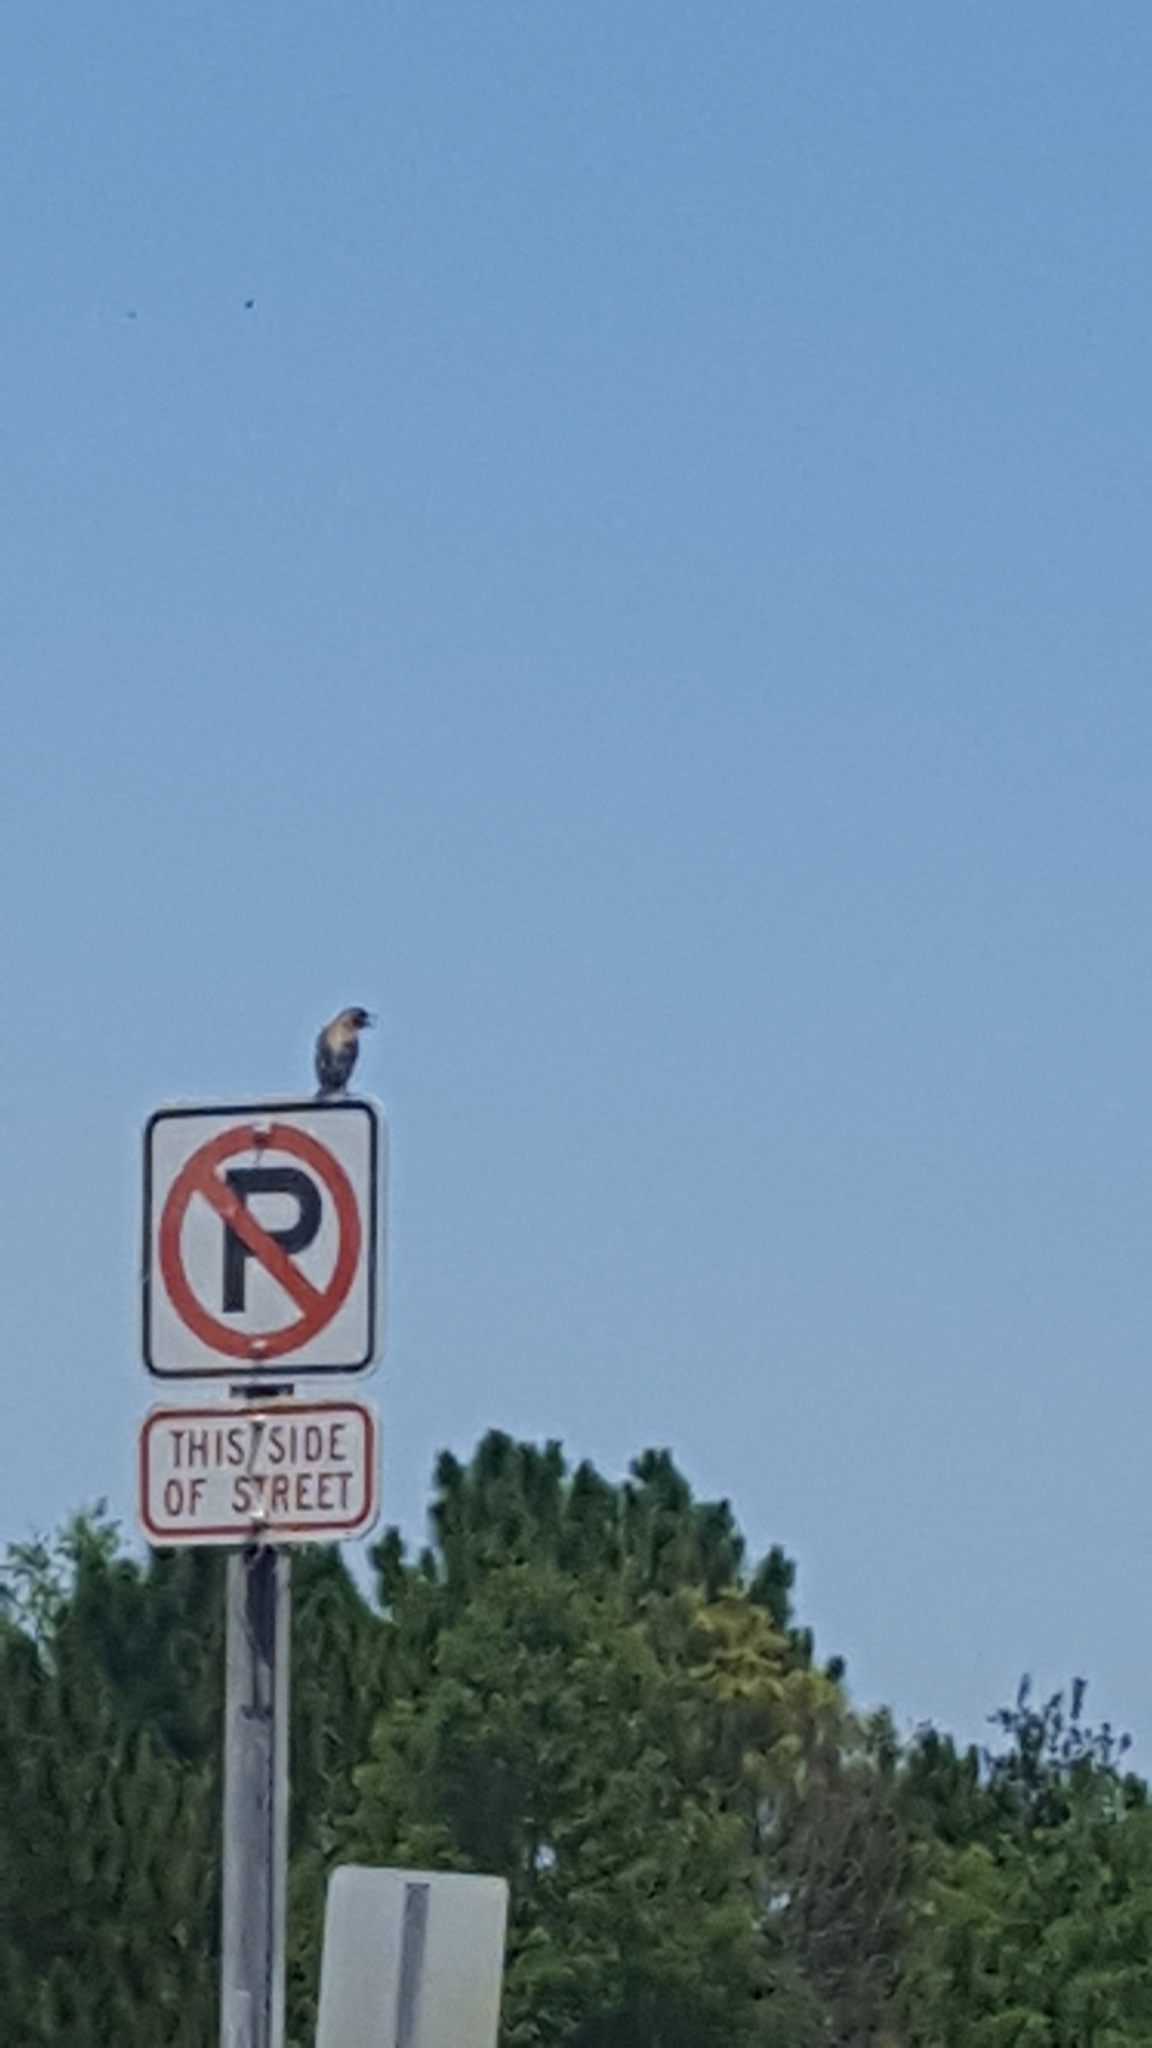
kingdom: Animalia
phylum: Chordata
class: Aves
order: Passeriformes
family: Turdidae
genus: Sialia
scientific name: Sialia sialis
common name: Eastern bluebird
